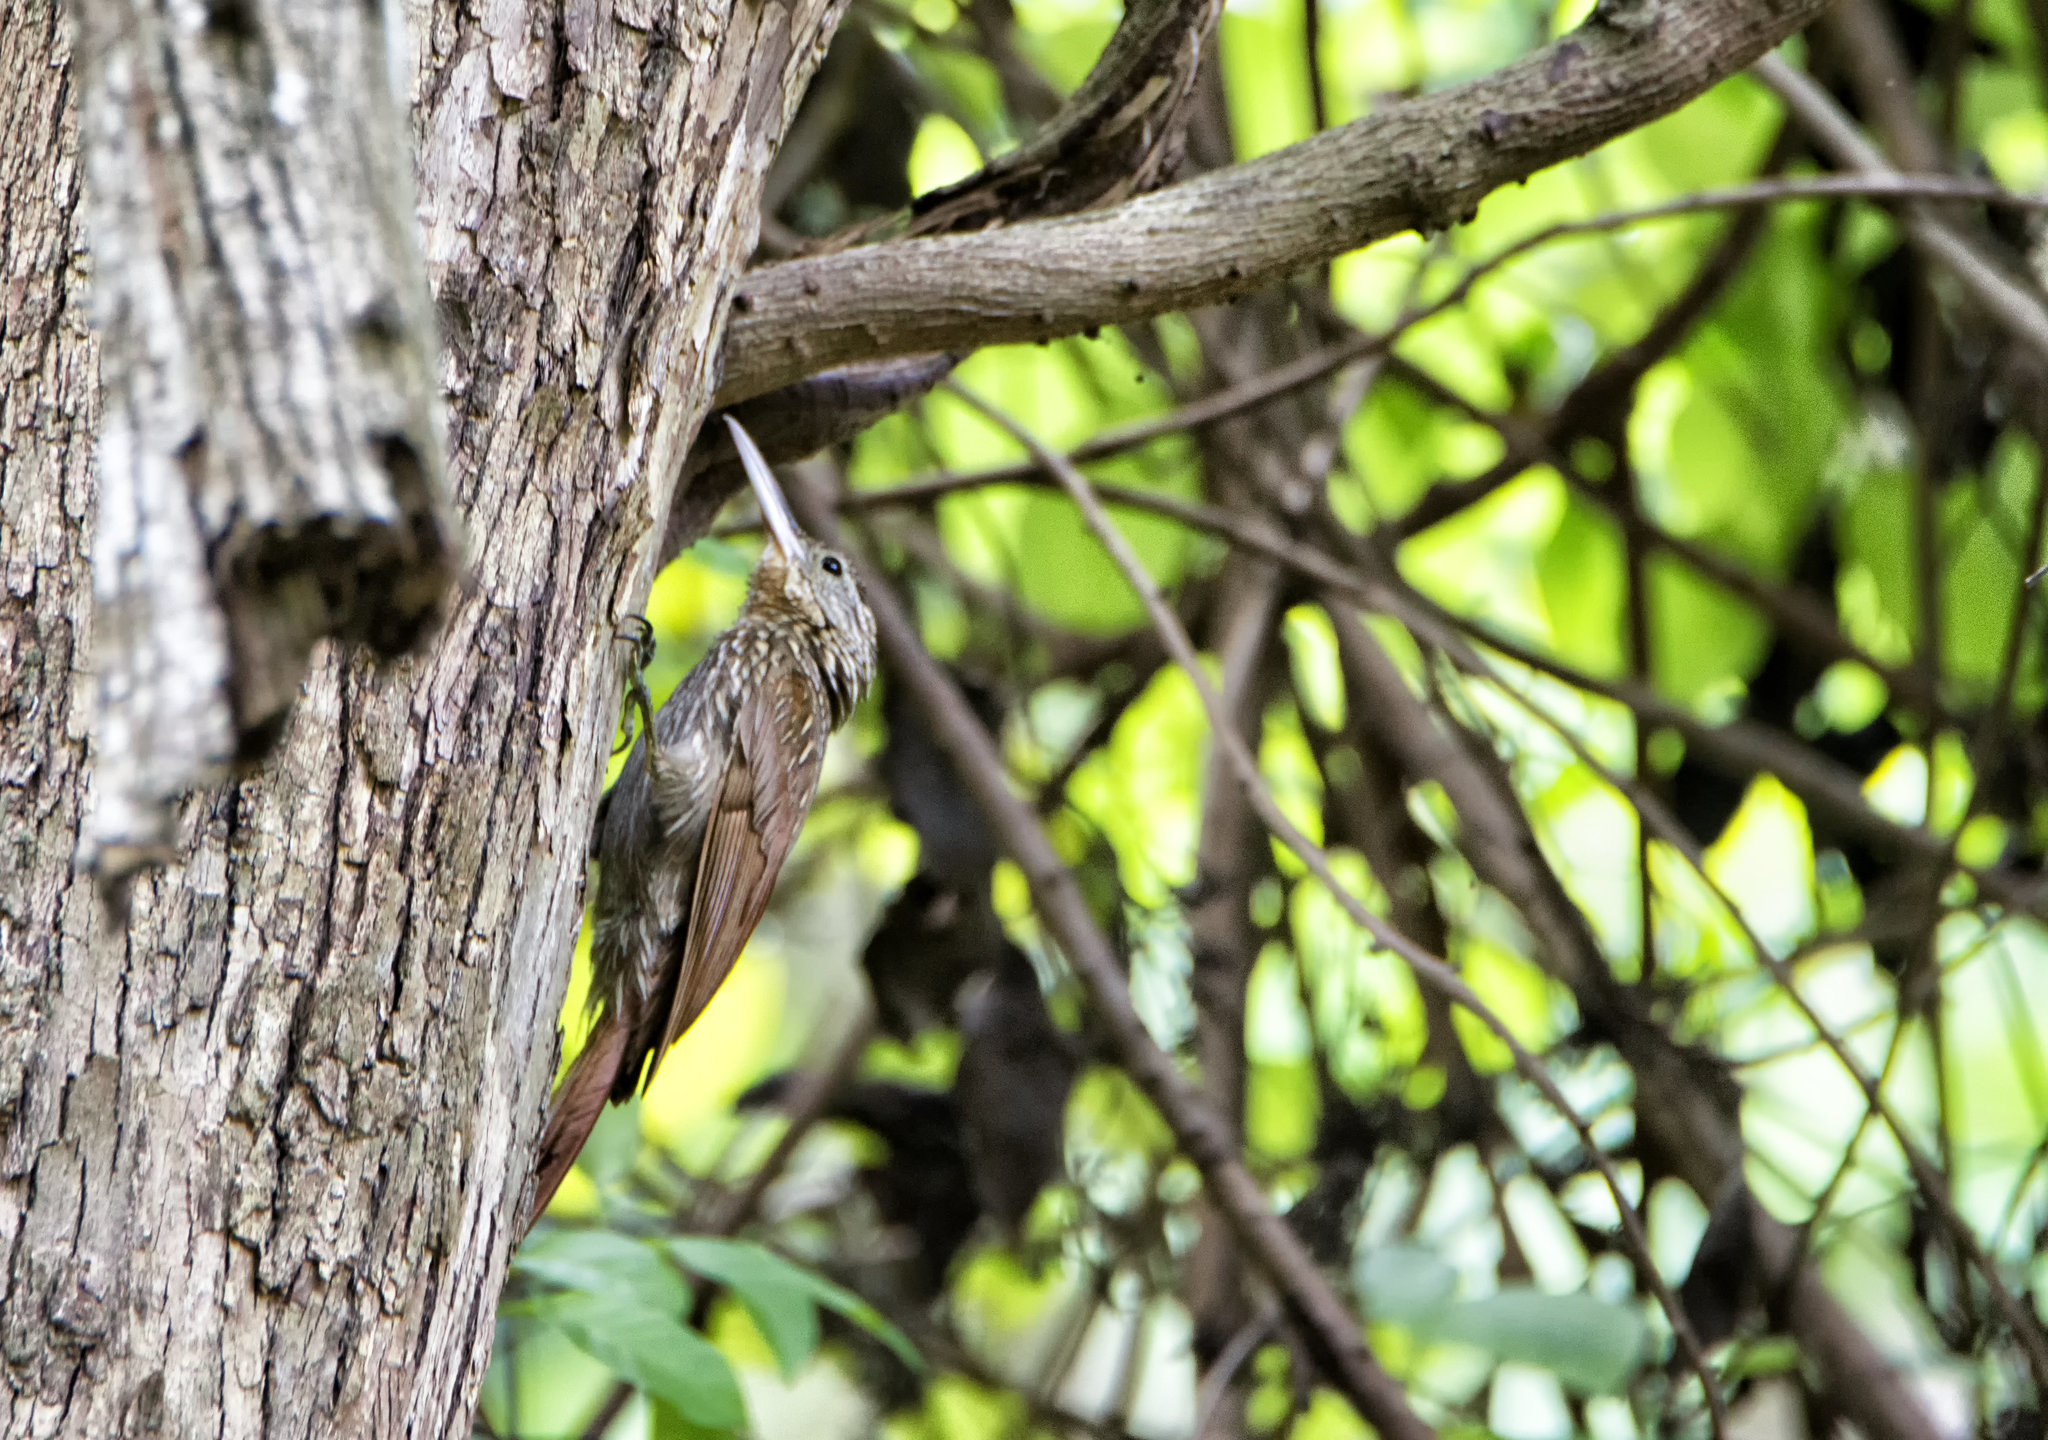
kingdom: Animalia
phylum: Chordata
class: Aves
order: Passeriformes
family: Furnariidae
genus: Xiphorhynchus
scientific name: Xiphorhynchus flavigaster
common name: Ivory-billed woodcreeper
